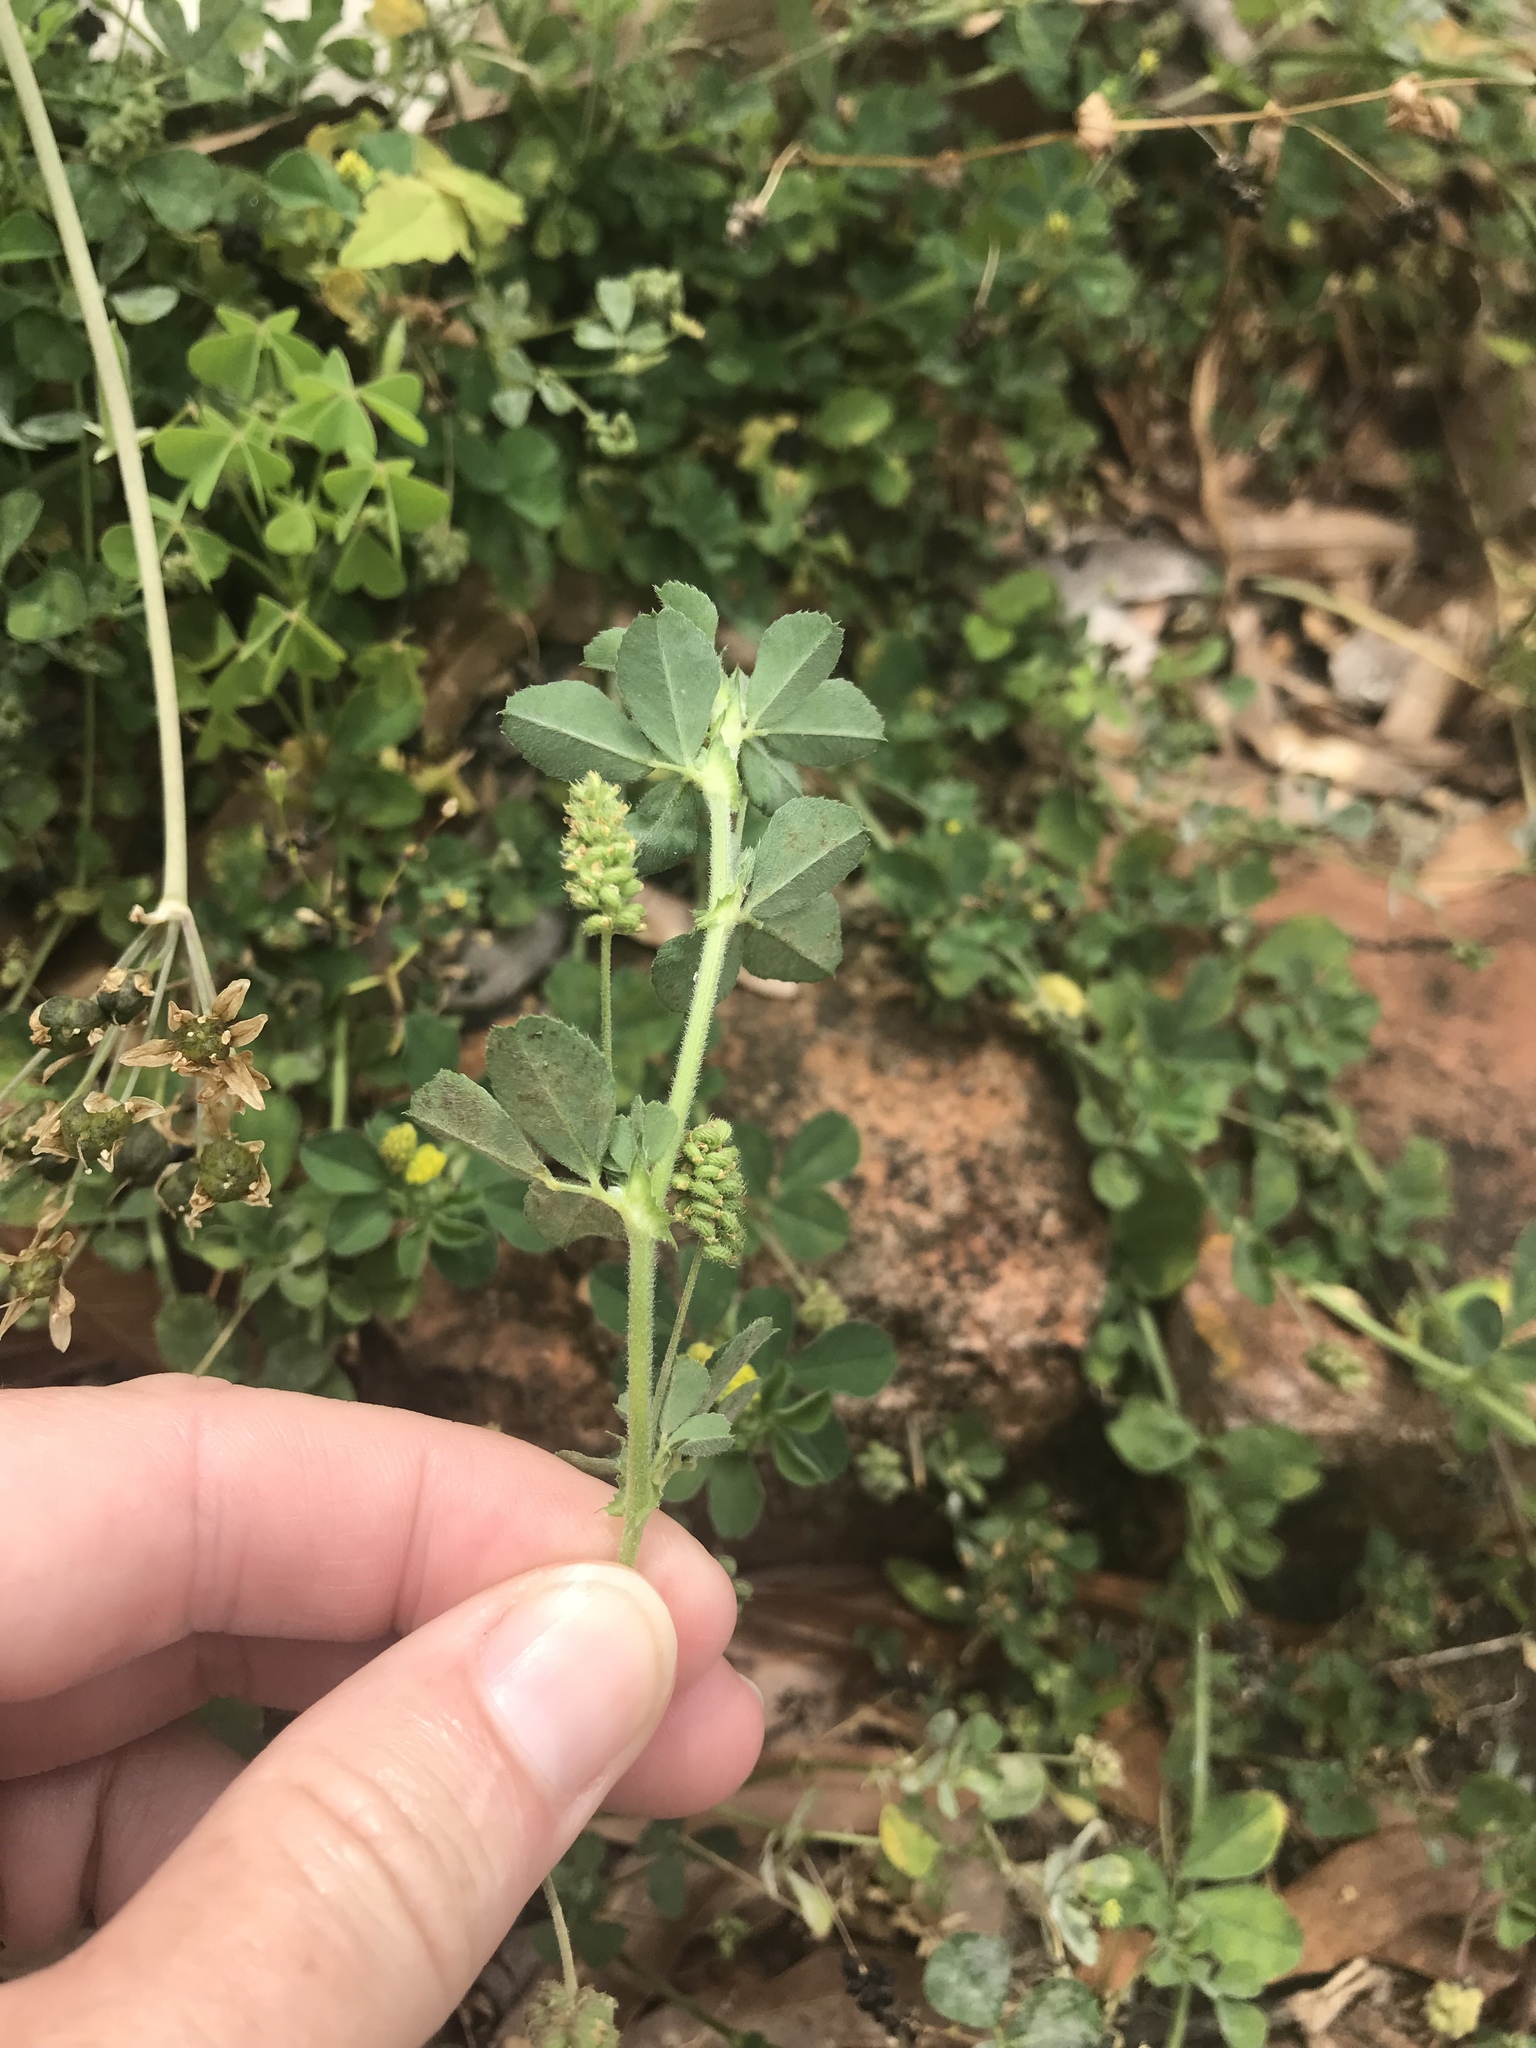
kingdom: Plantae
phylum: Tracheophyta
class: Magnoliopsida
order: Fabales
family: Fabaceae
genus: Medicago
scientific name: Medicago lupulina
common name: Black medick
